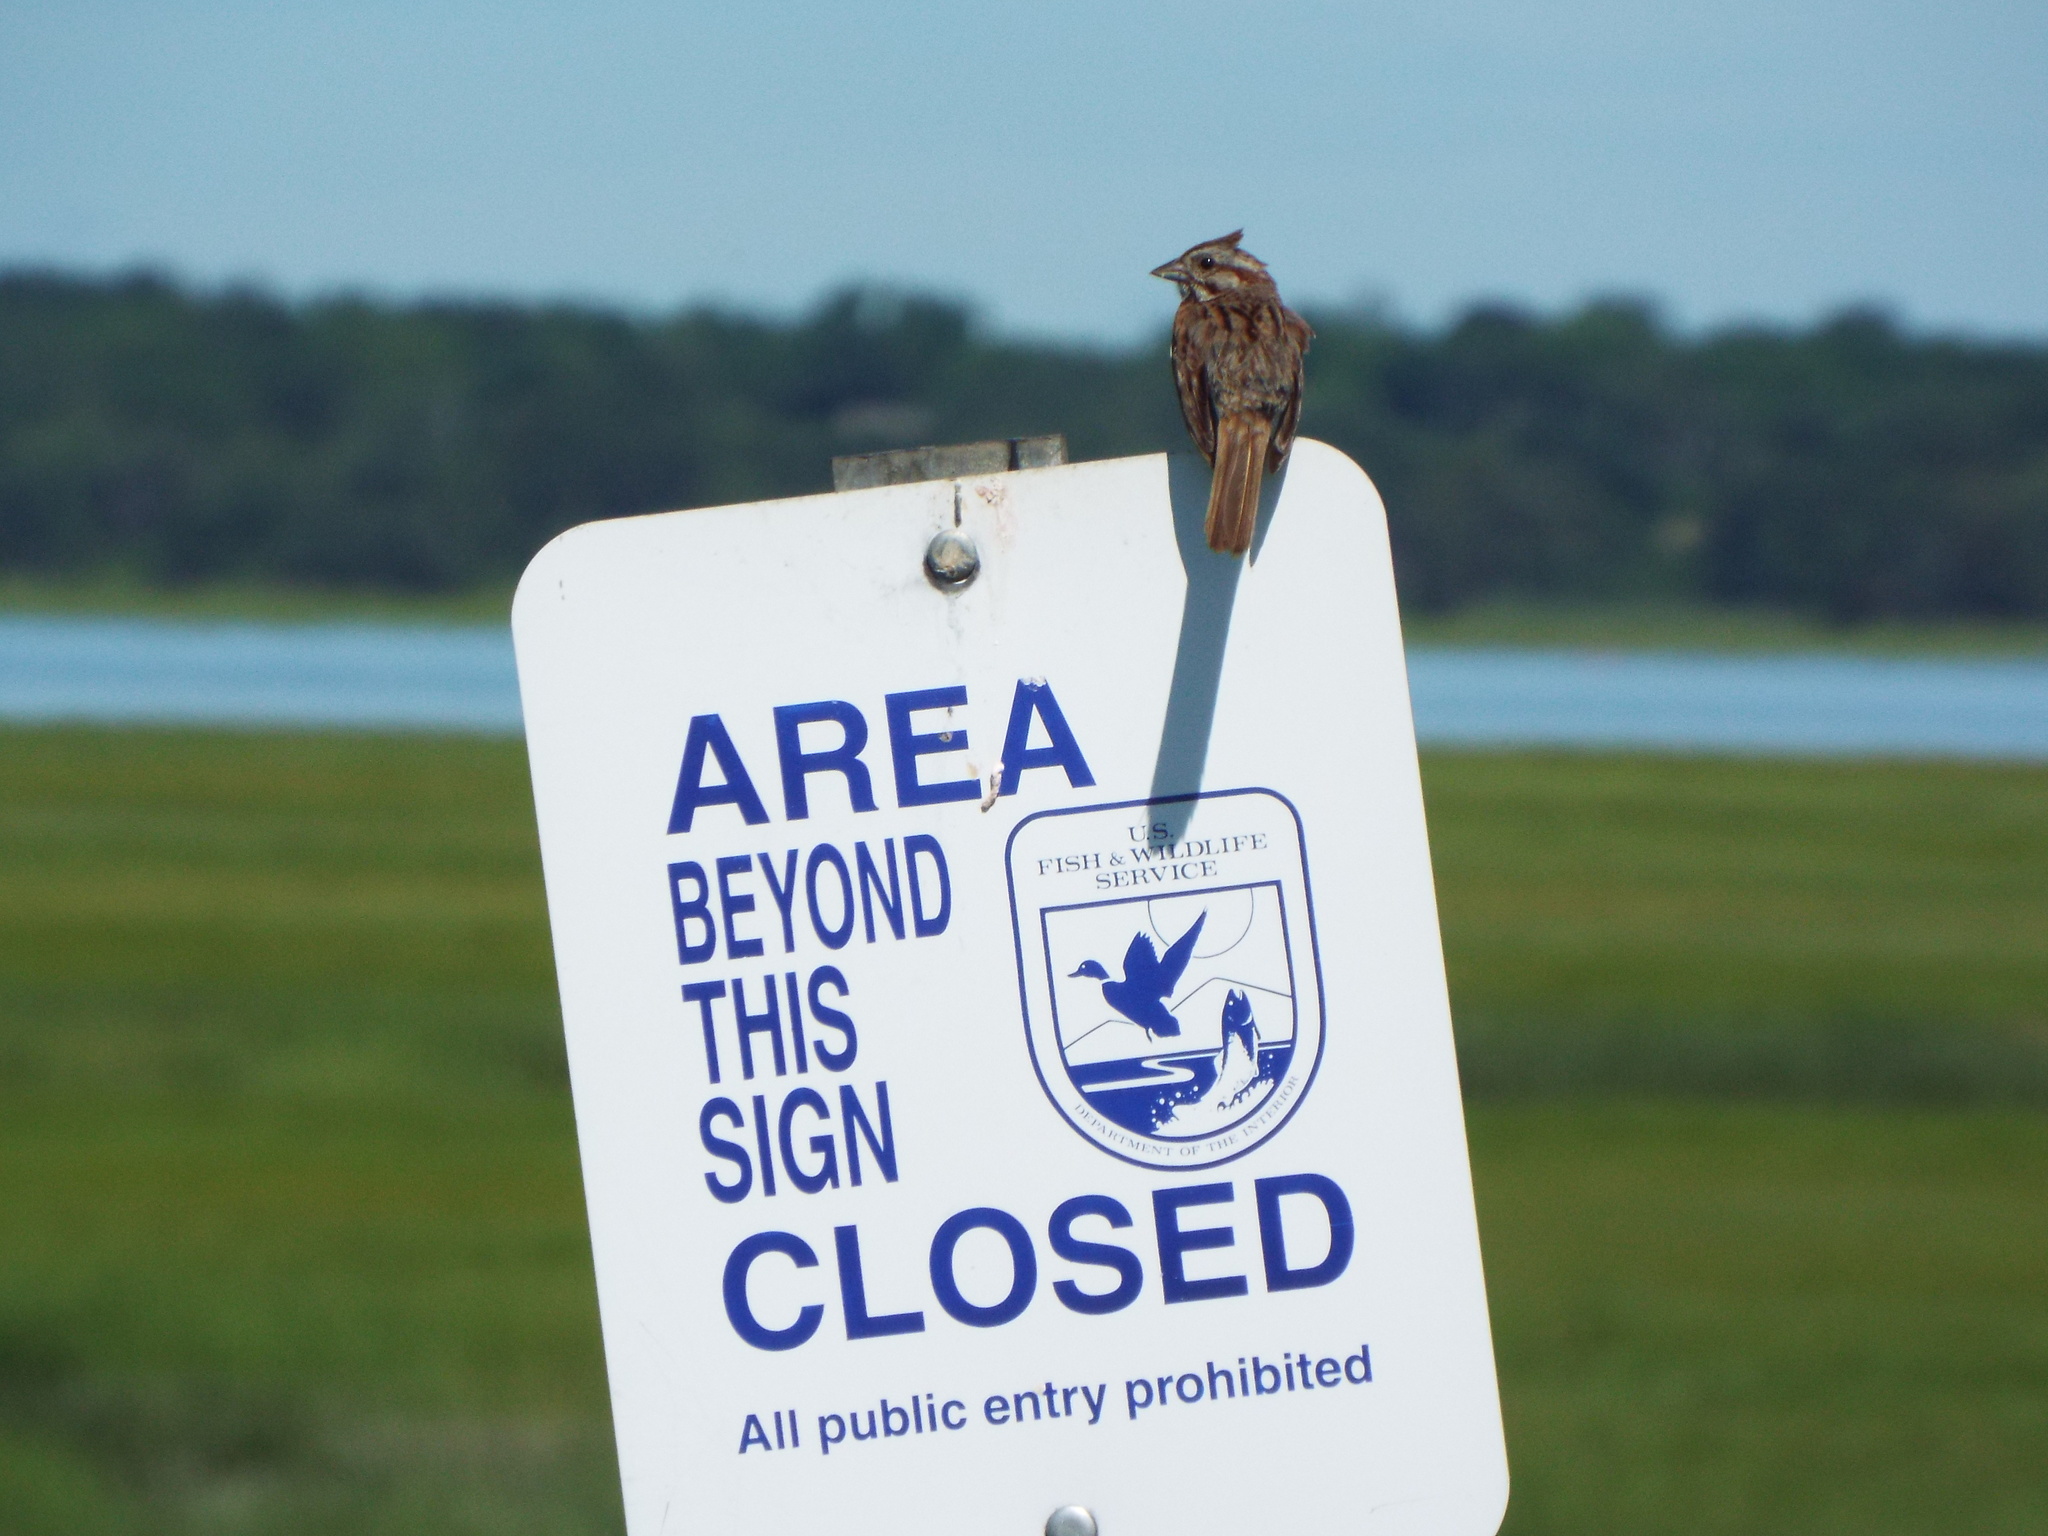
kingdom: Animalia
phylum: Chordata
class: Aves
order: Passeriformes
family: Passerellidae
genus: Melospiza
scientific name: Melospiza melodia
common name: Song sparrow
